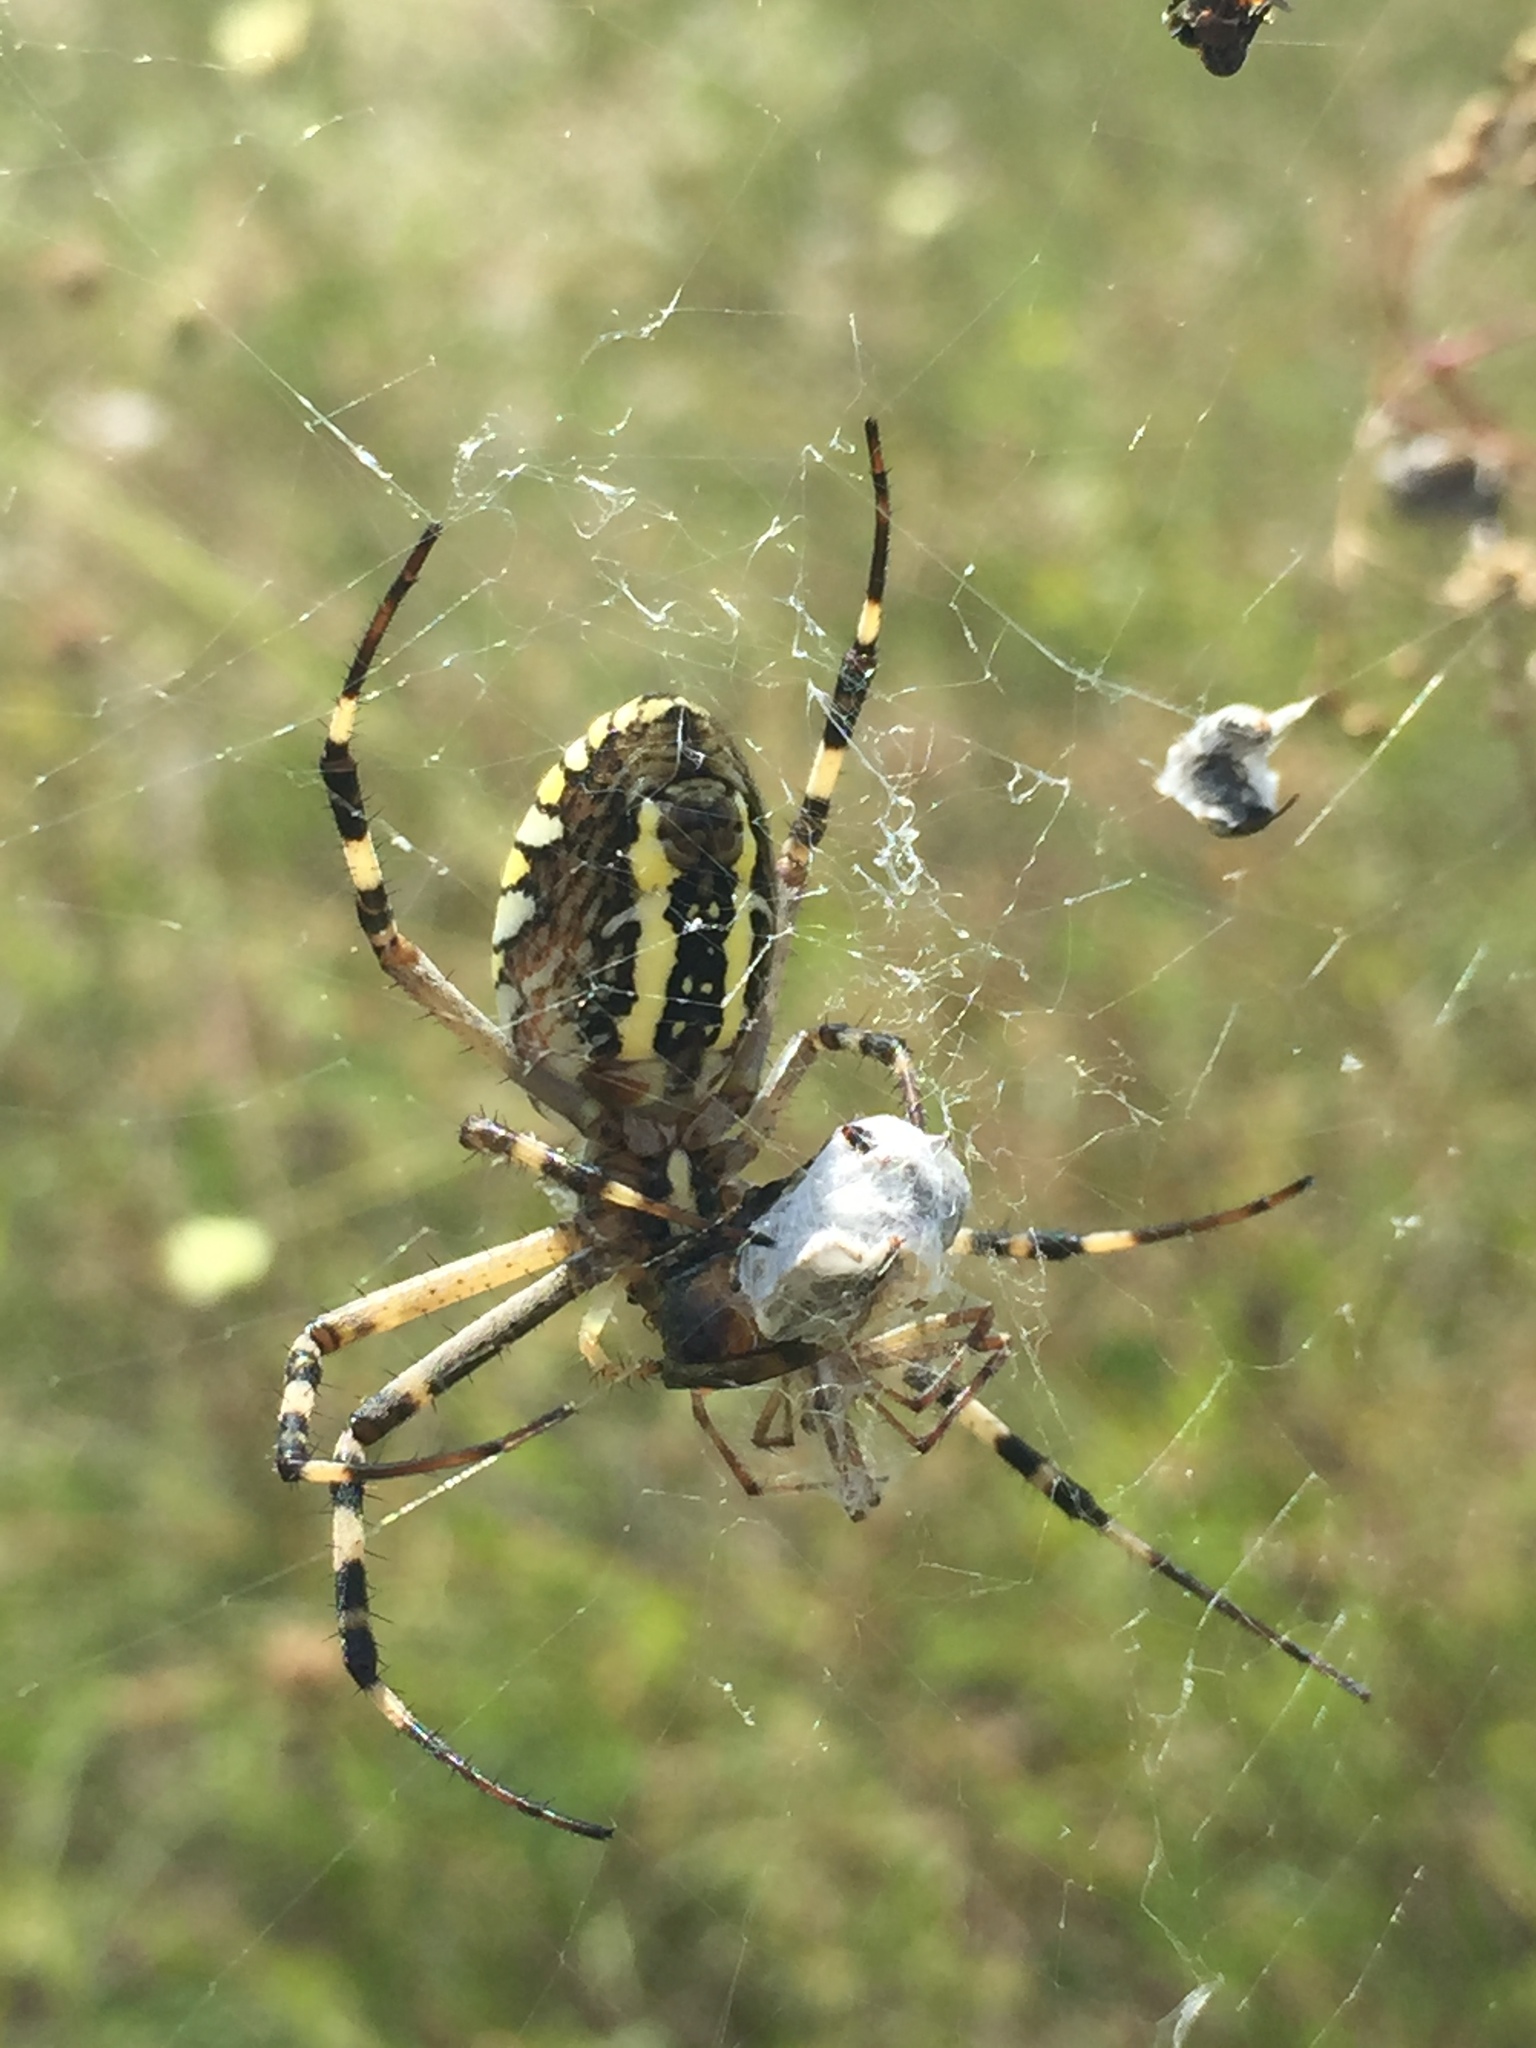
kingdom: Animalia
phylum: Arthropoda
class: Arachnida
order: Araneae
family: Araneidae
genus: Argiope
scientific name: Argiope bruennichi
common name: Wasp spider
